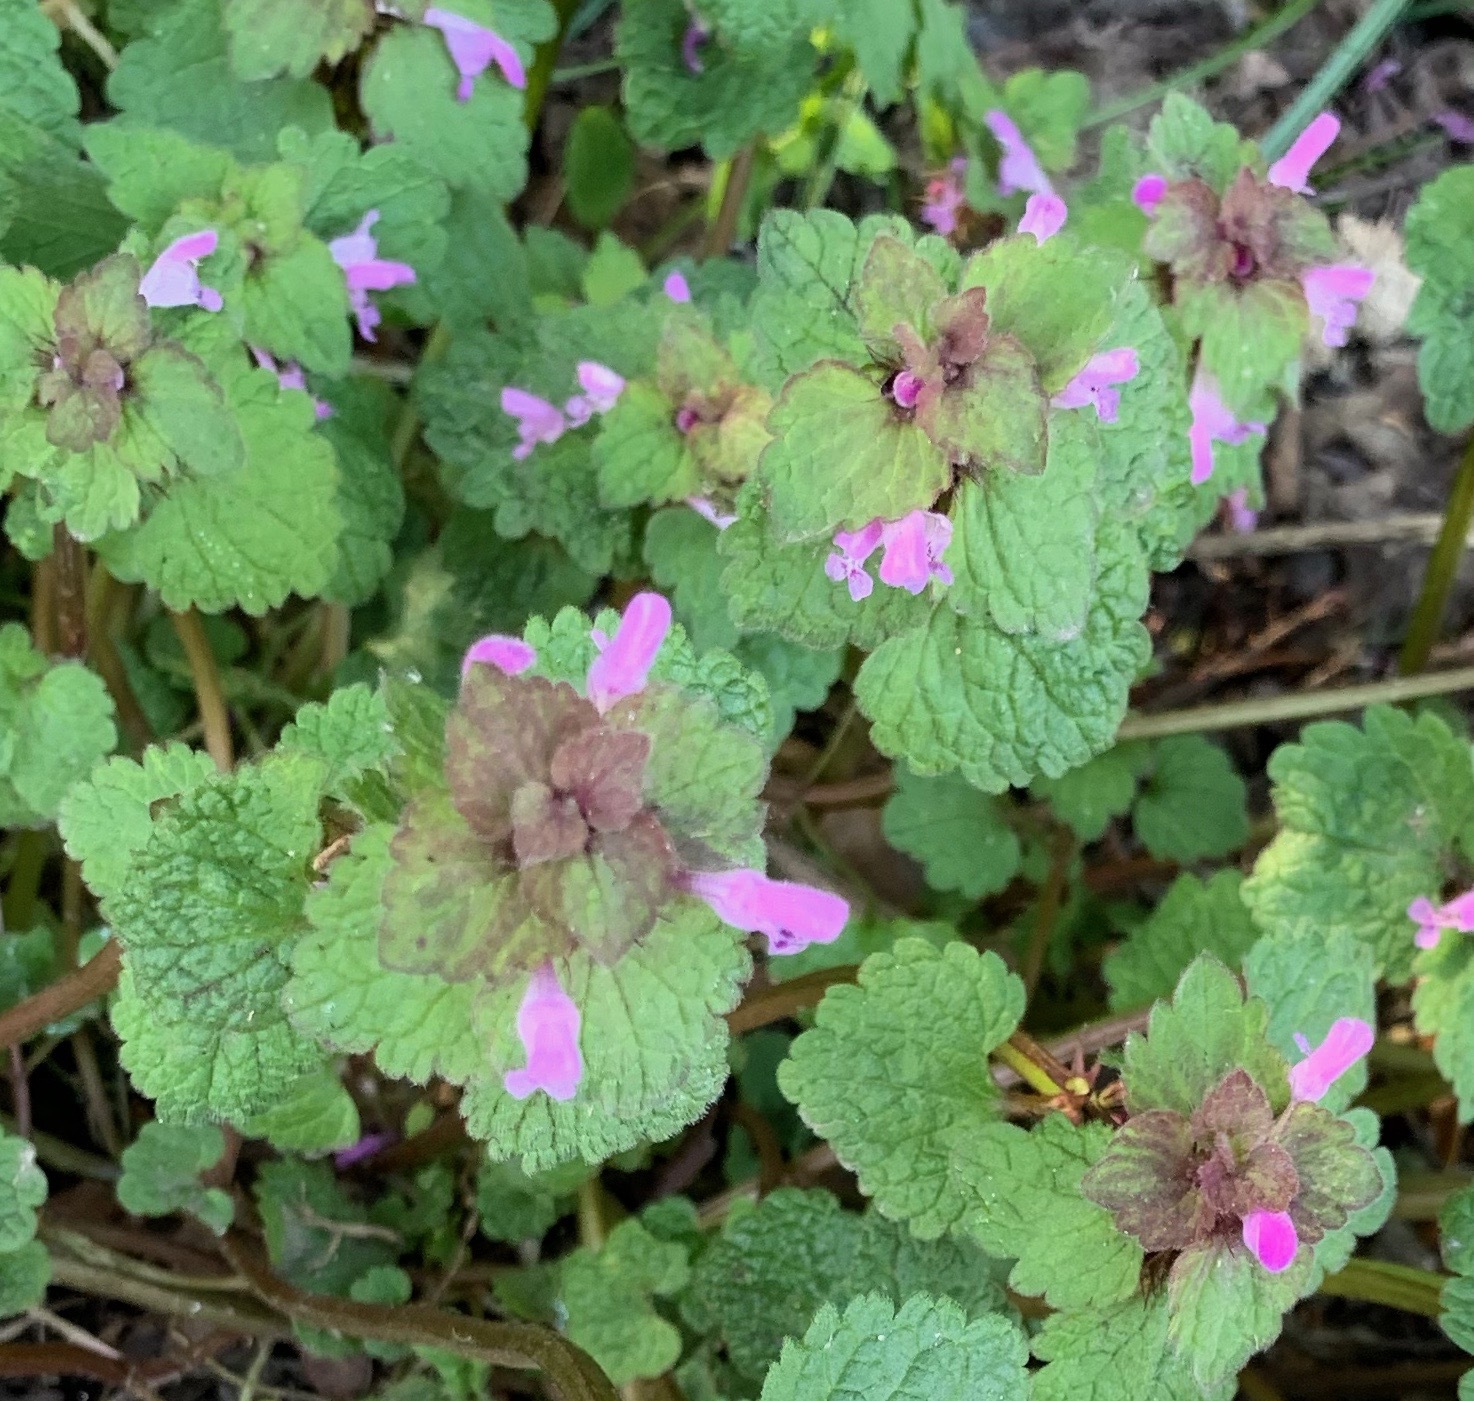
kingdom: Plantae
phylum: Tracheophyta
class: Magnoliopsida
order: Lamiales
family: Lamiaceae
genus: Lamium
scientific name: Lamium purpureum
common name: Red dead-nettle
